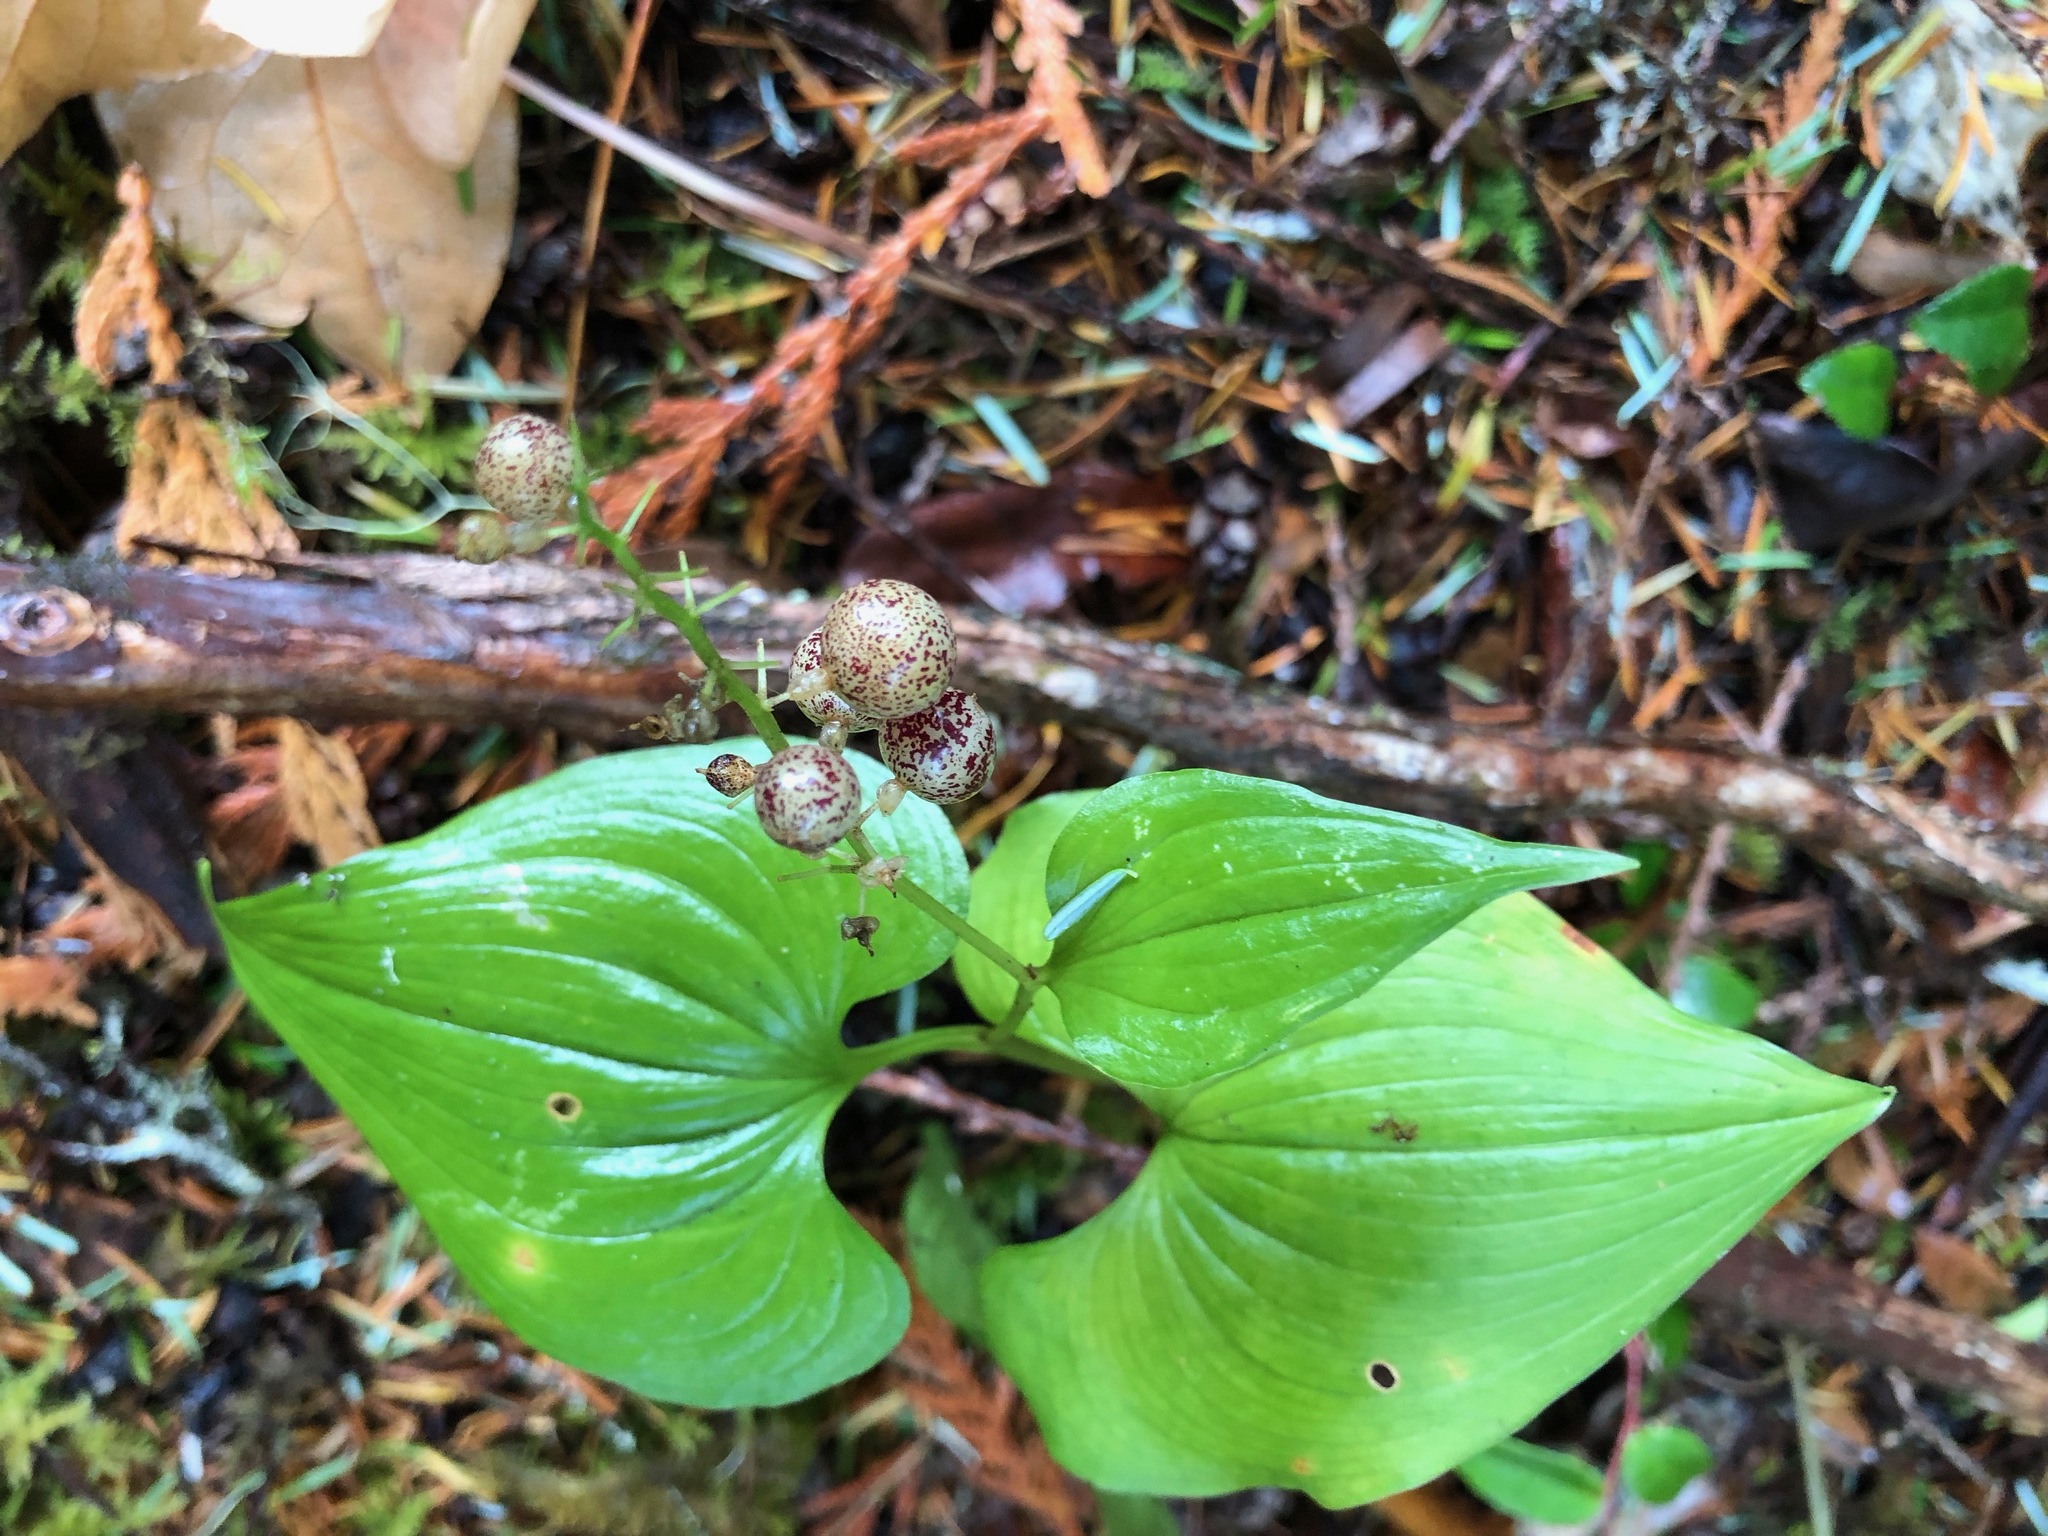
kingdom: Plantae
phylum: Tracheophyta
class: Liliopsida
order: Asparagales
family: Asparagaceae
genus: Maianthemum
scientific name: Maianthemum dilatatum
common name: False lily-of-the-valley
